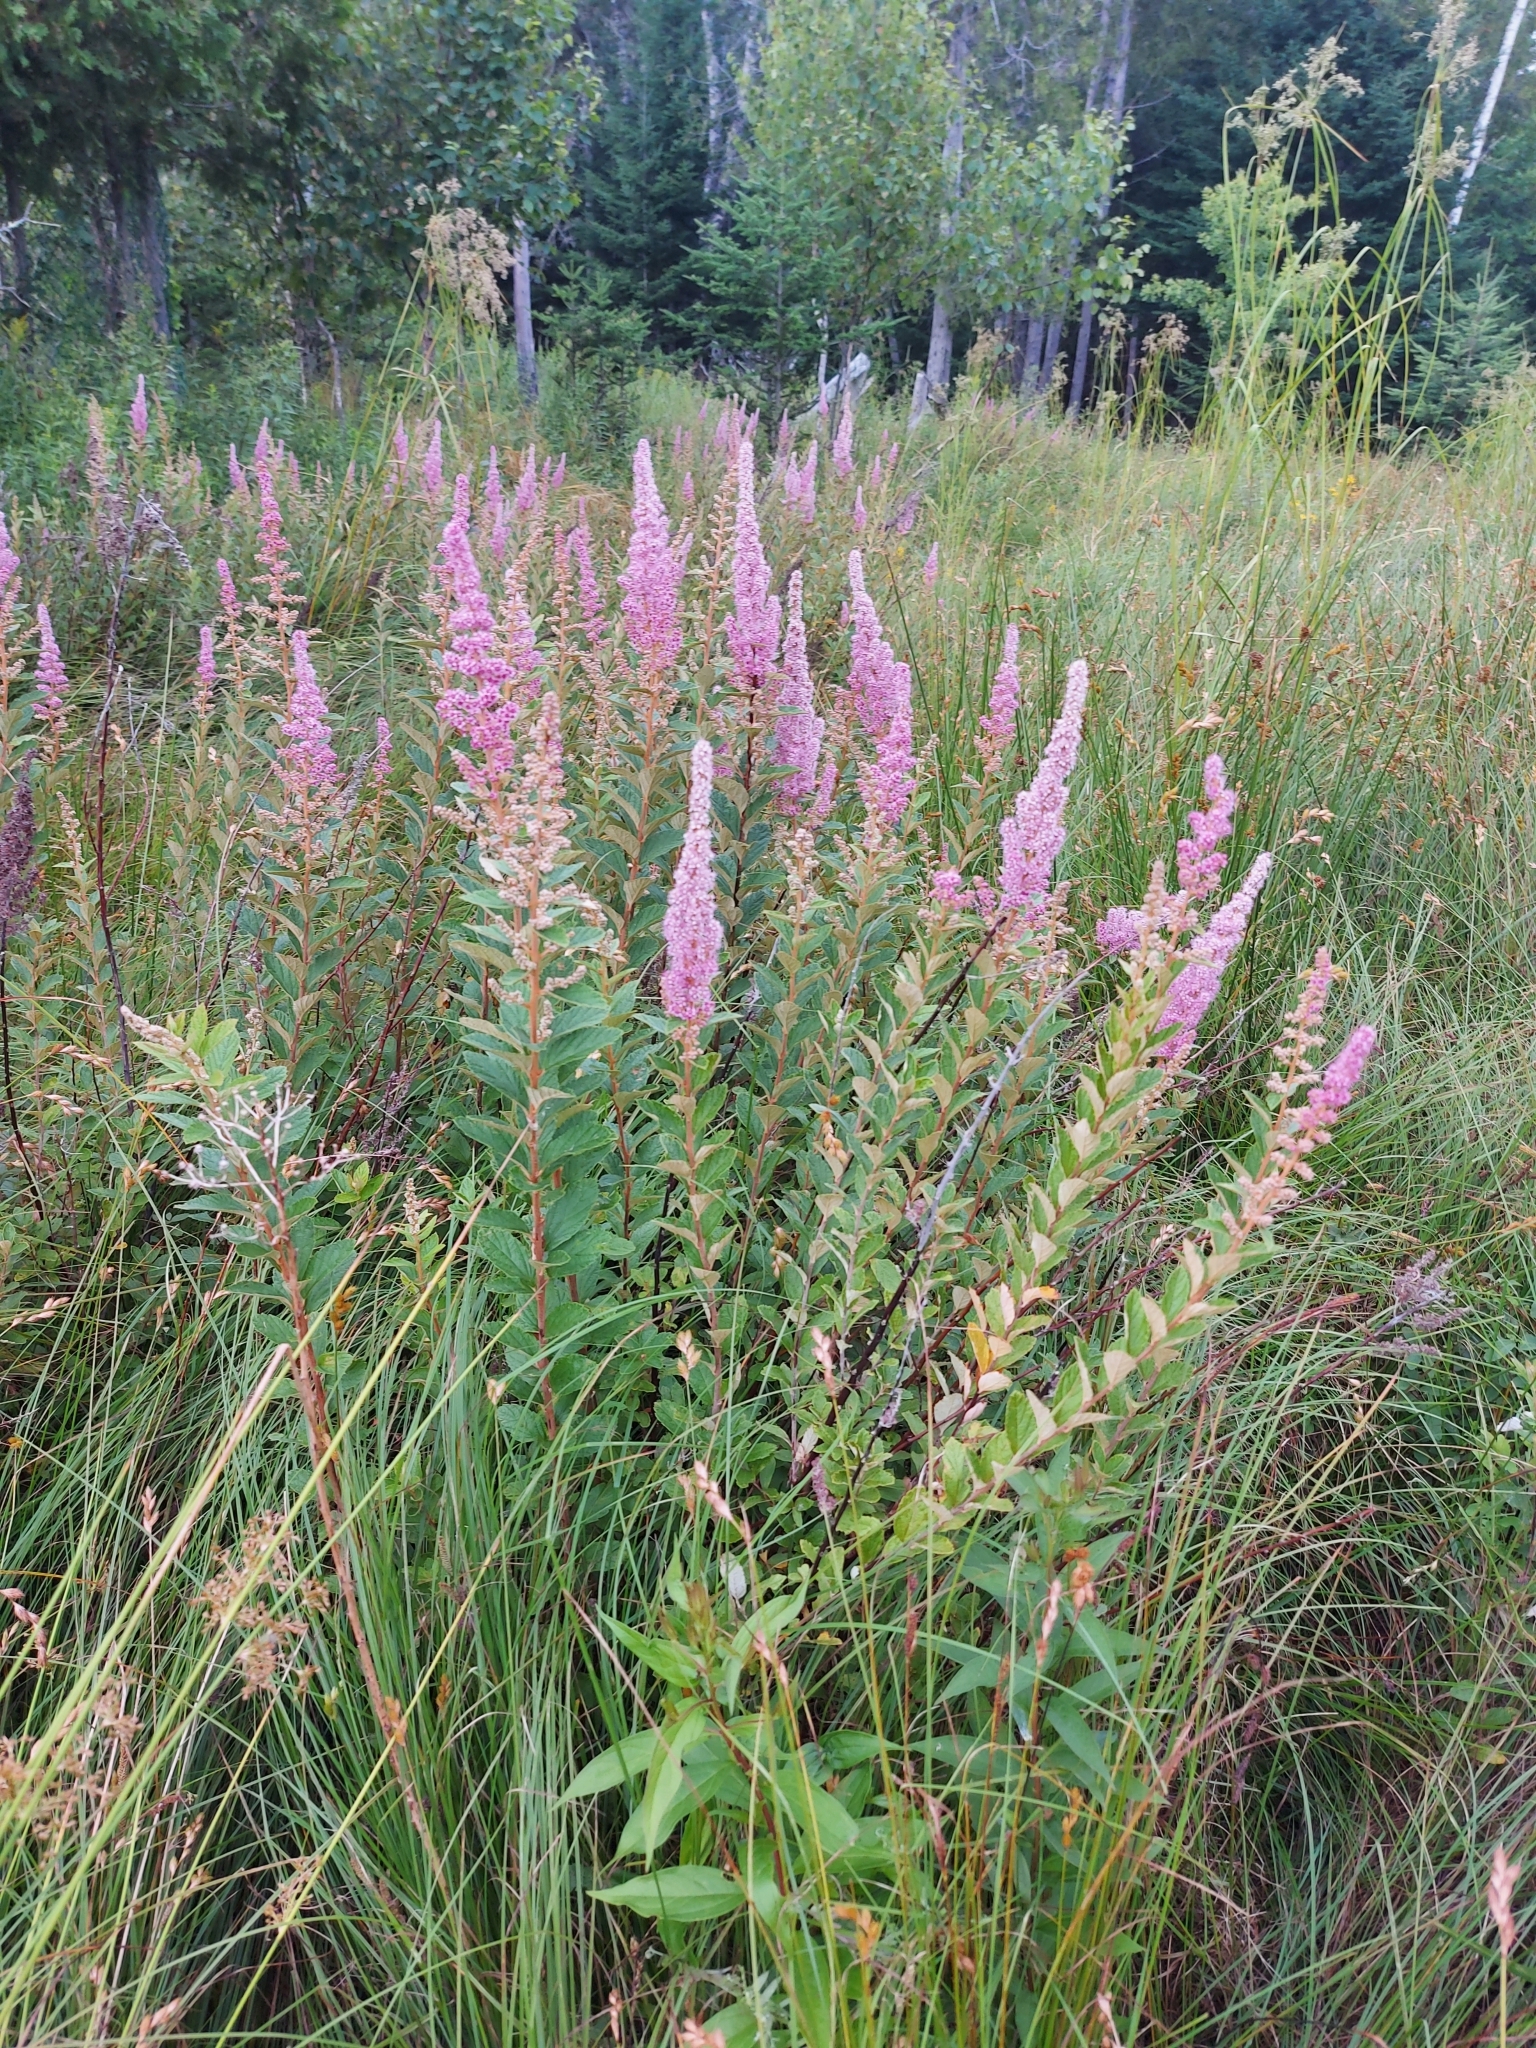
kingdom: Plantae
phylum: Tracheophyta
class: Magnoliopsida
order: Rosales
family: Rosaceae
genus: Spiraea
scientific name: Spiraea tomentosa
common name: Hardhack
